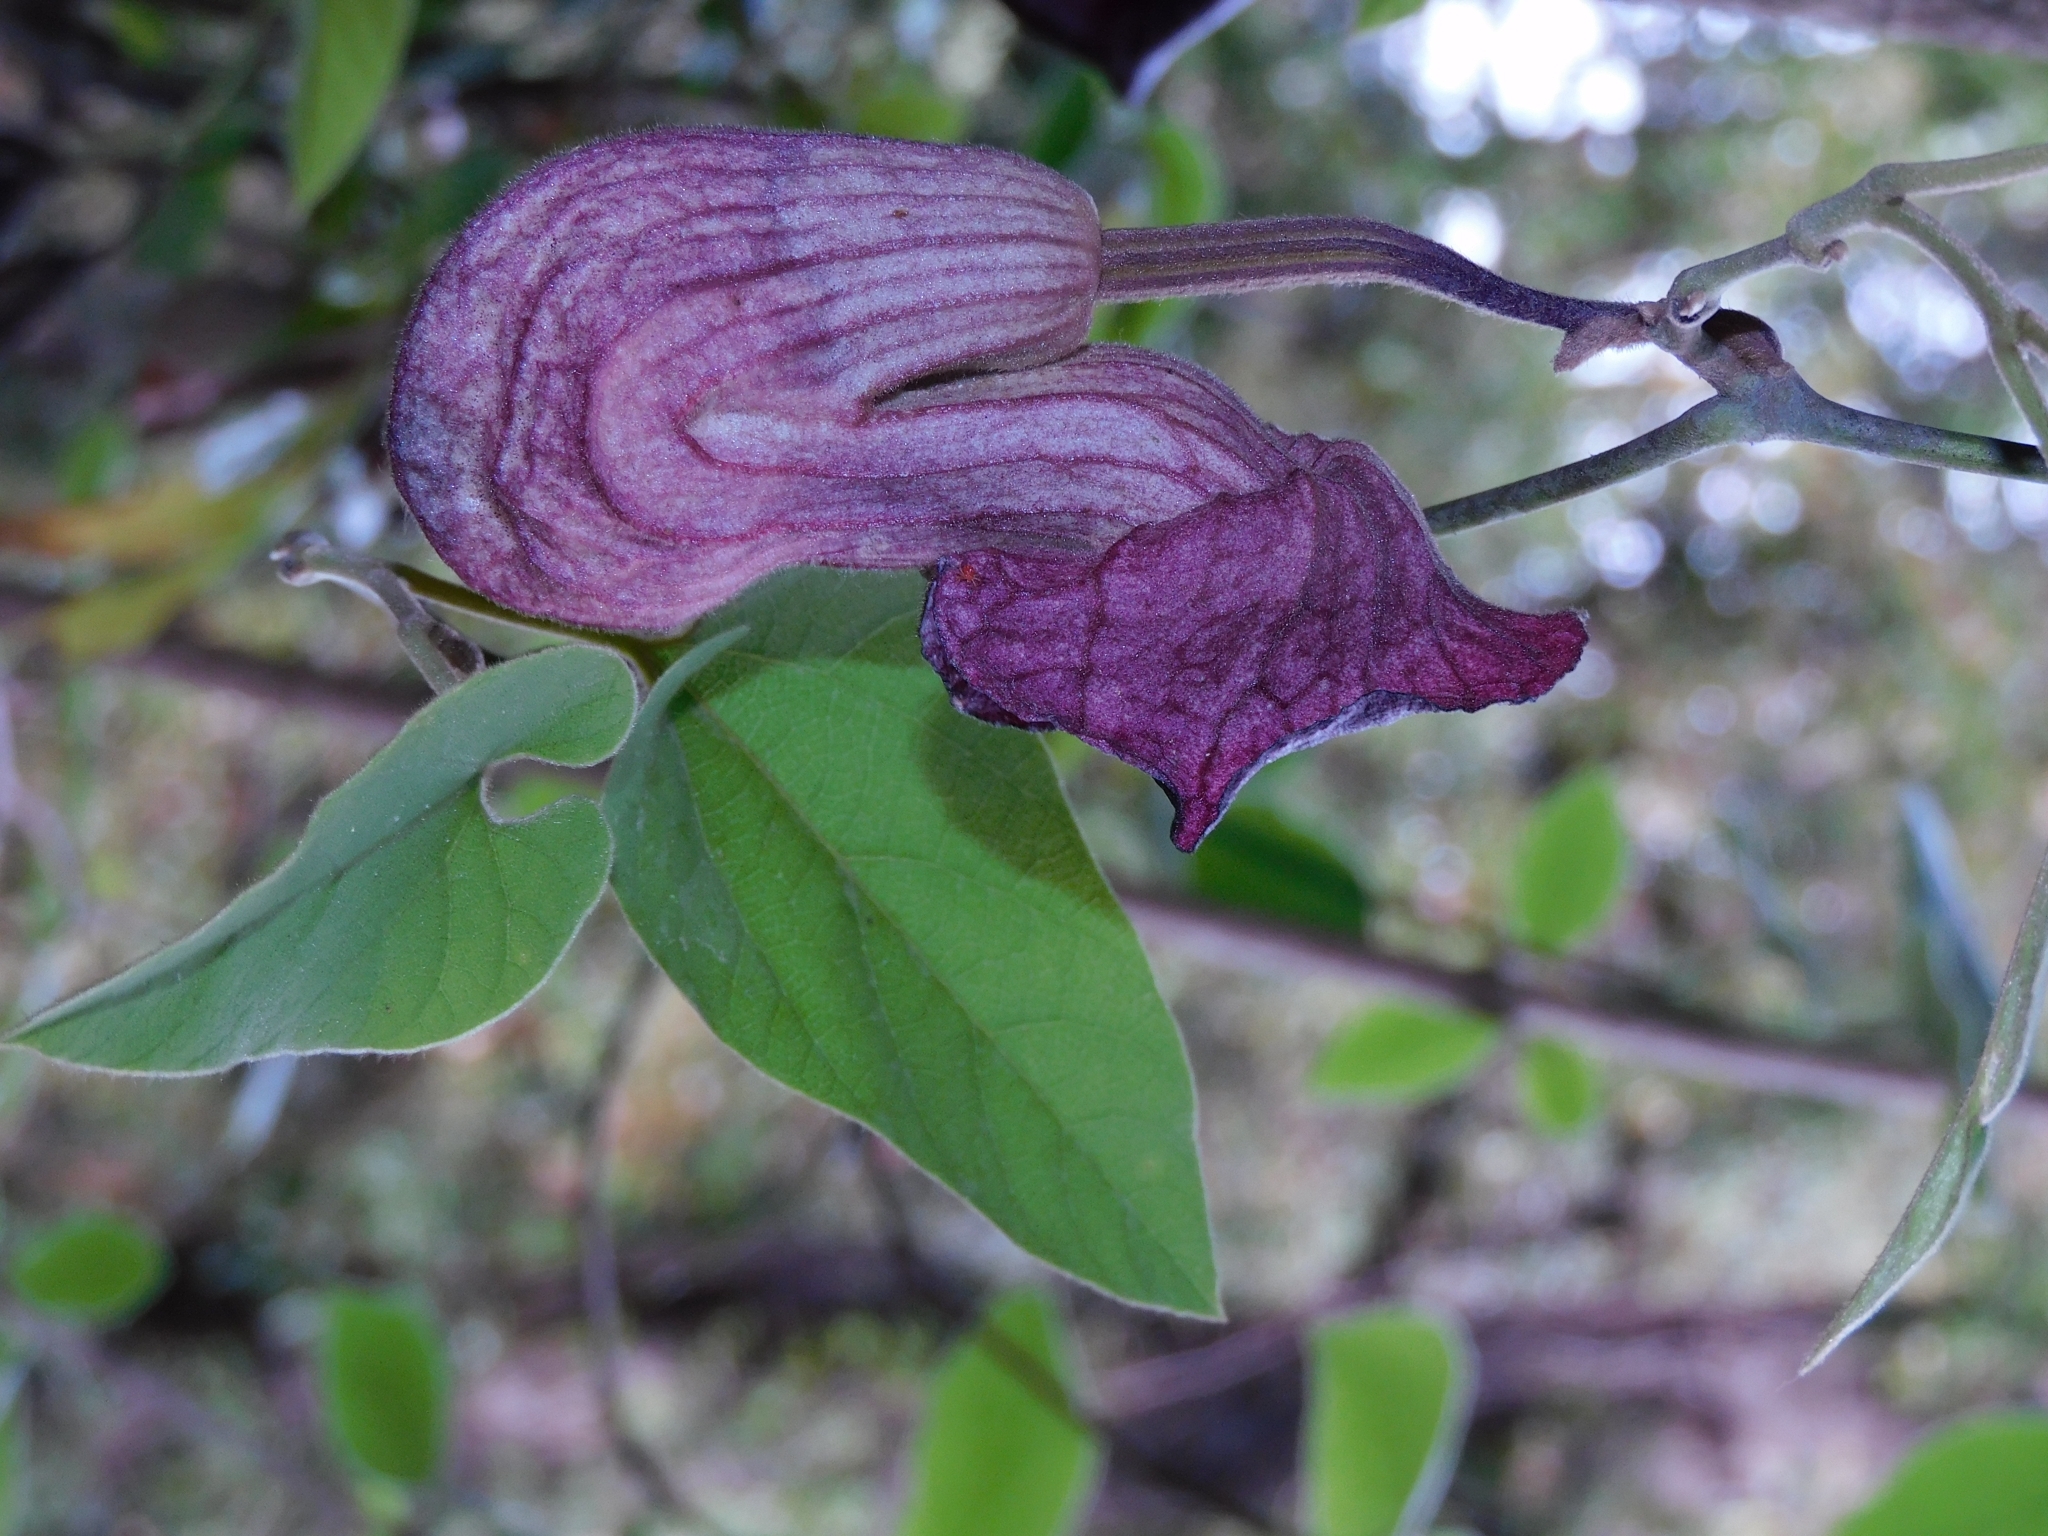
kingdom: Plantae
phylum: Tracheophyta
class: Magnoliopsida
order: Piperales
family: Aristolochiaceae
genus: Isotrema
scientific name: Isotrema dilatatum
